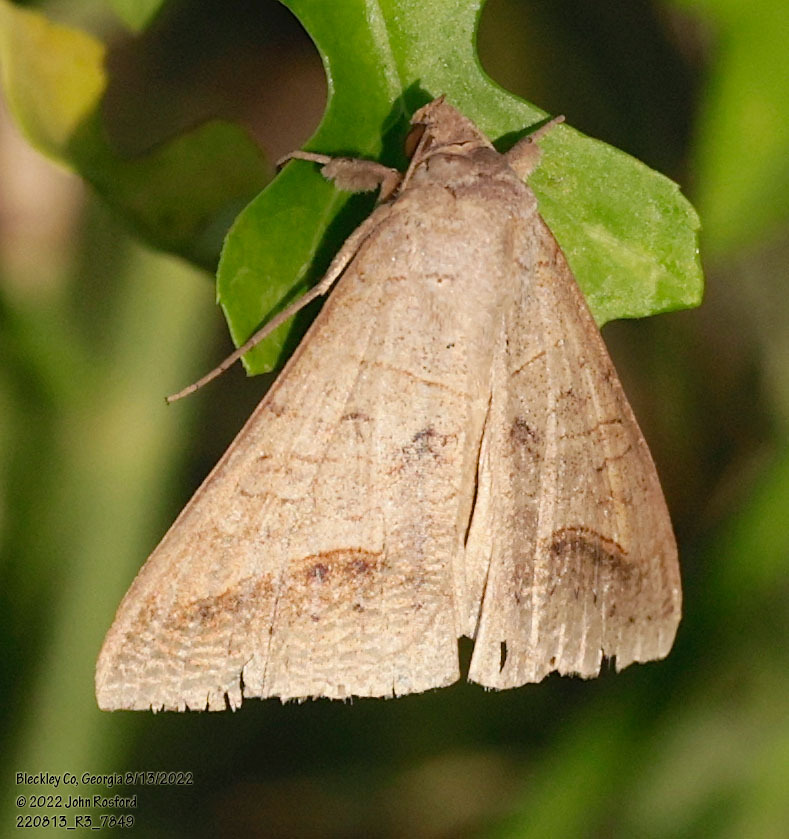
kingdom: Animalia
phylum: Arthropoda
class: Insecta
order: Lepidoptera
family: Erebidae
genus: Mocis
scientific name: Mocis marcida
